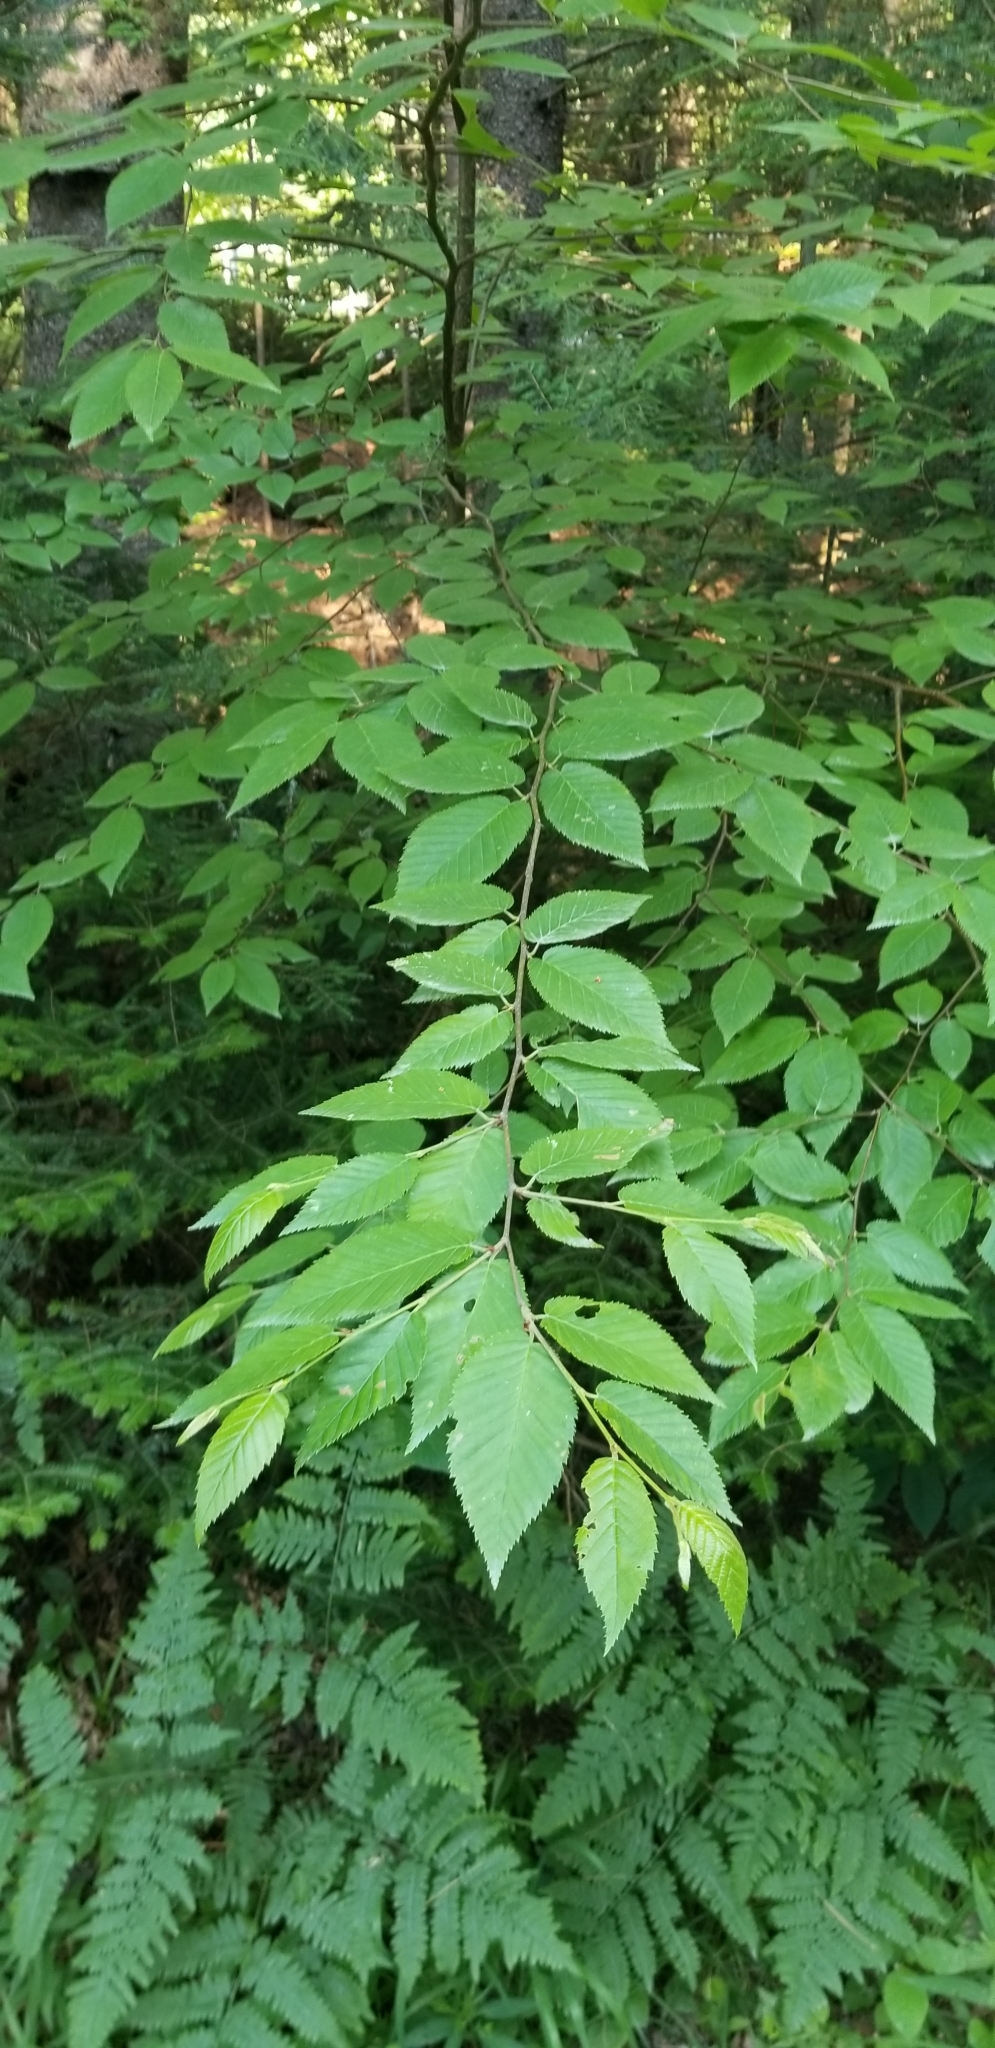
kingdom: Plantae
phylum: Tracheophyta
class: Magnoliopsida
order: Fagales
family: Betulaceae
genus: Betula
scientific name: Betula alleghaniensis
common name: Yellow birch
